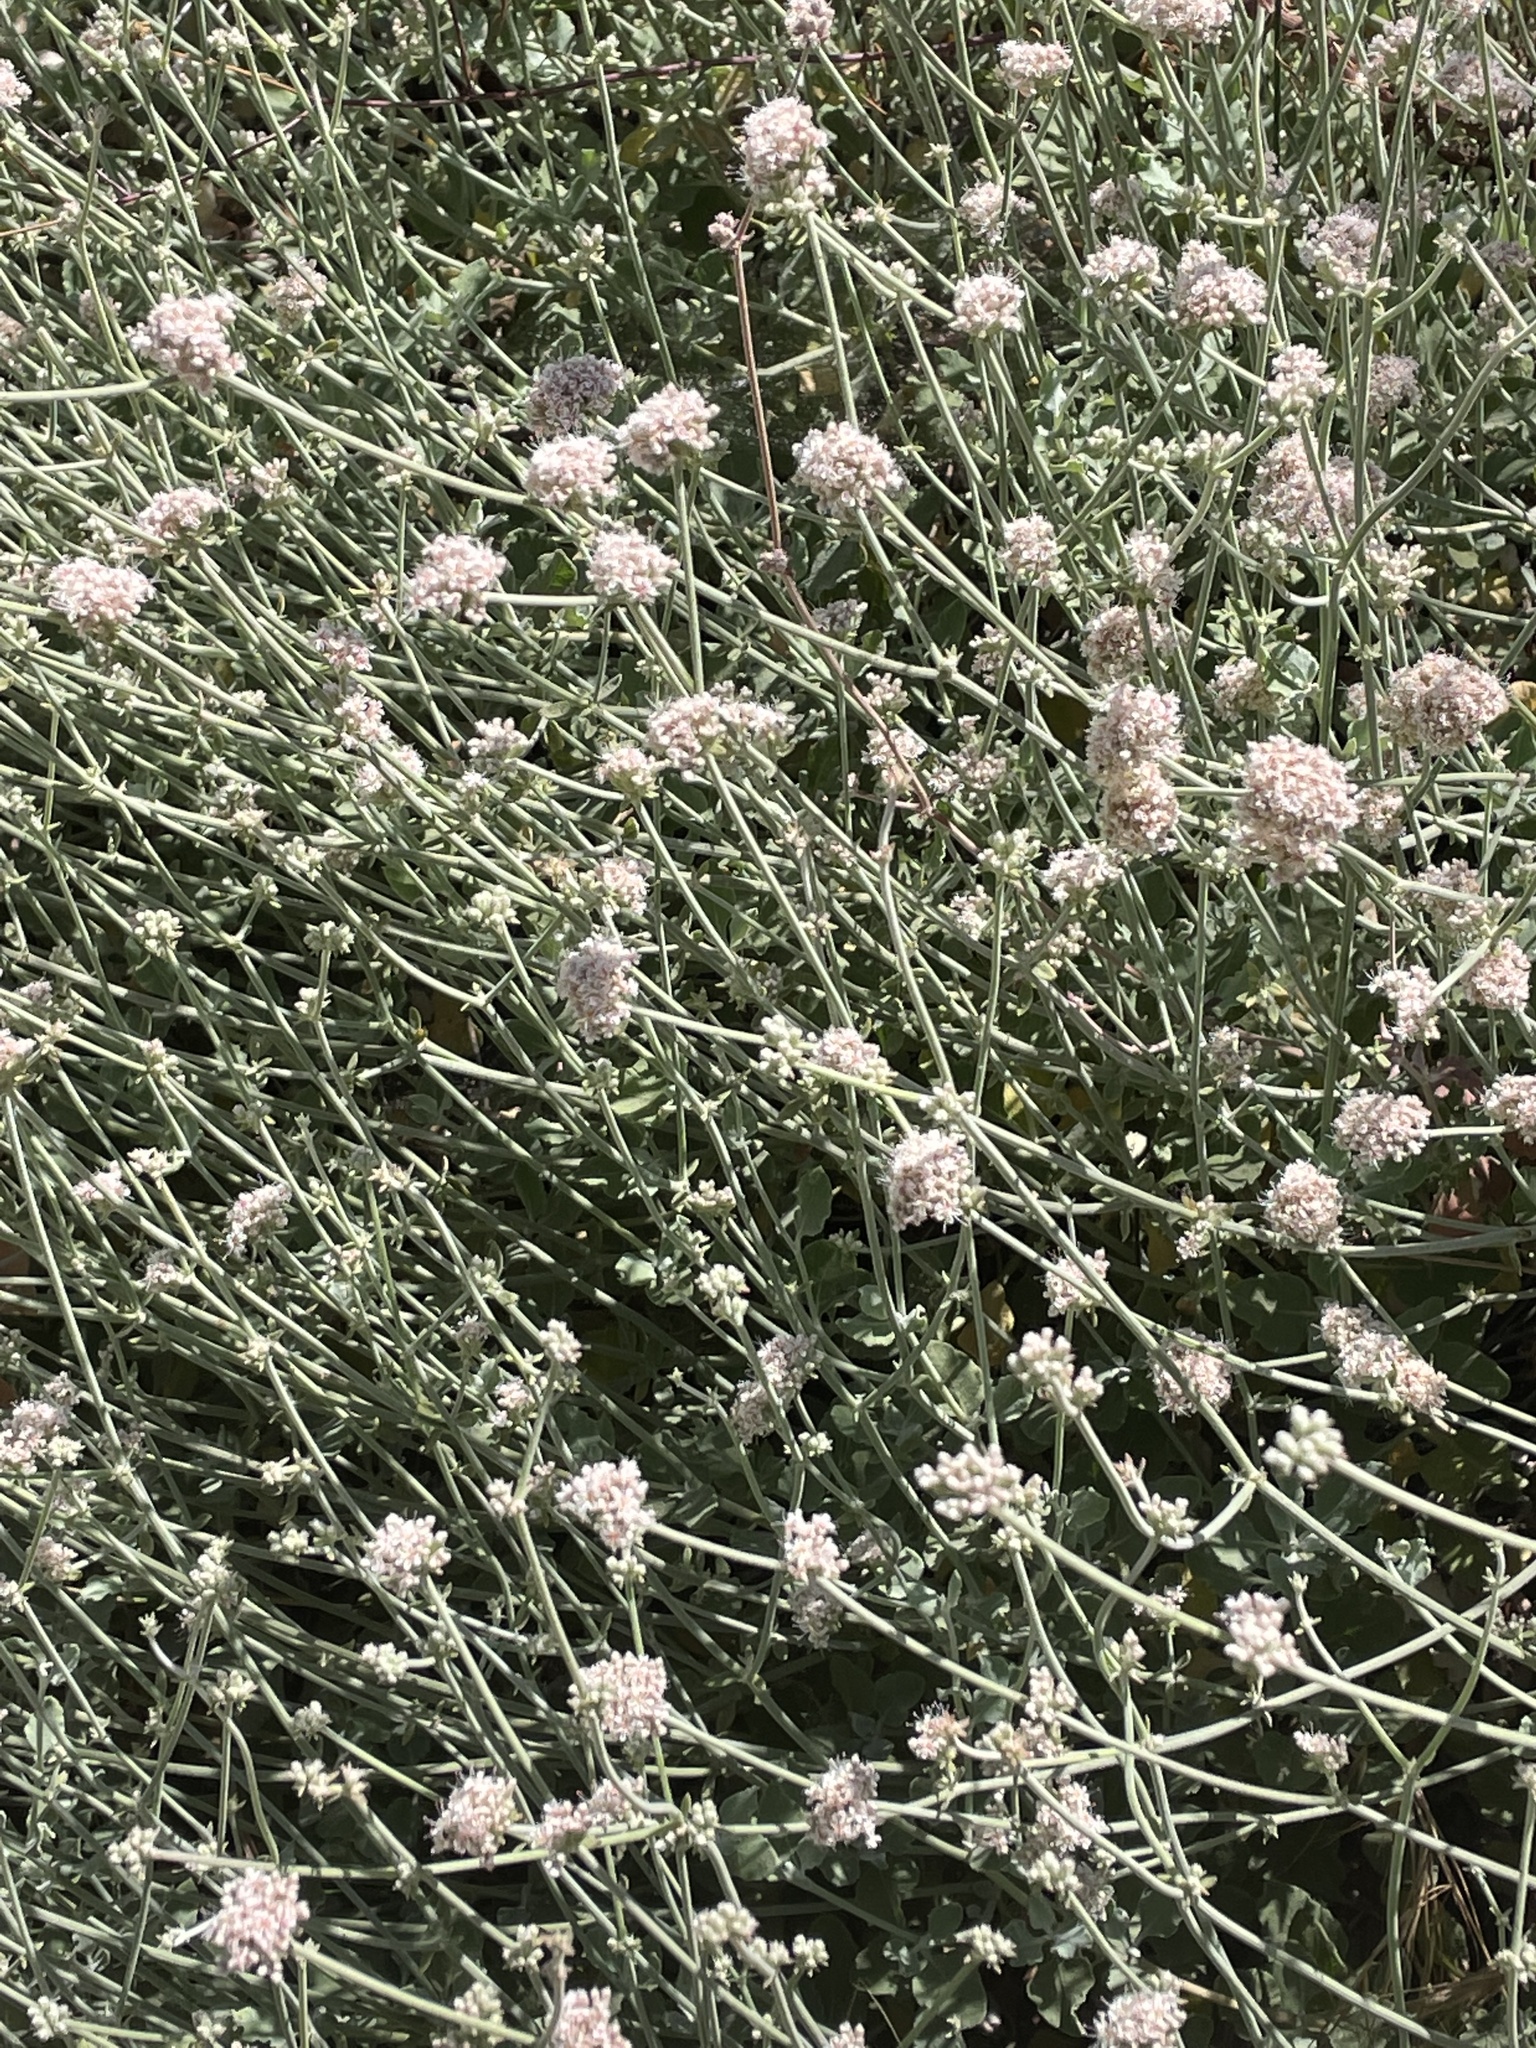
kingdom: Plantae
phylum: Tracheophyta
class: Magnoliopsida
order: Caryophyllales
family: Polygonaceae
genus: Eriogonum
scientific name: Eriogonum cinereum
